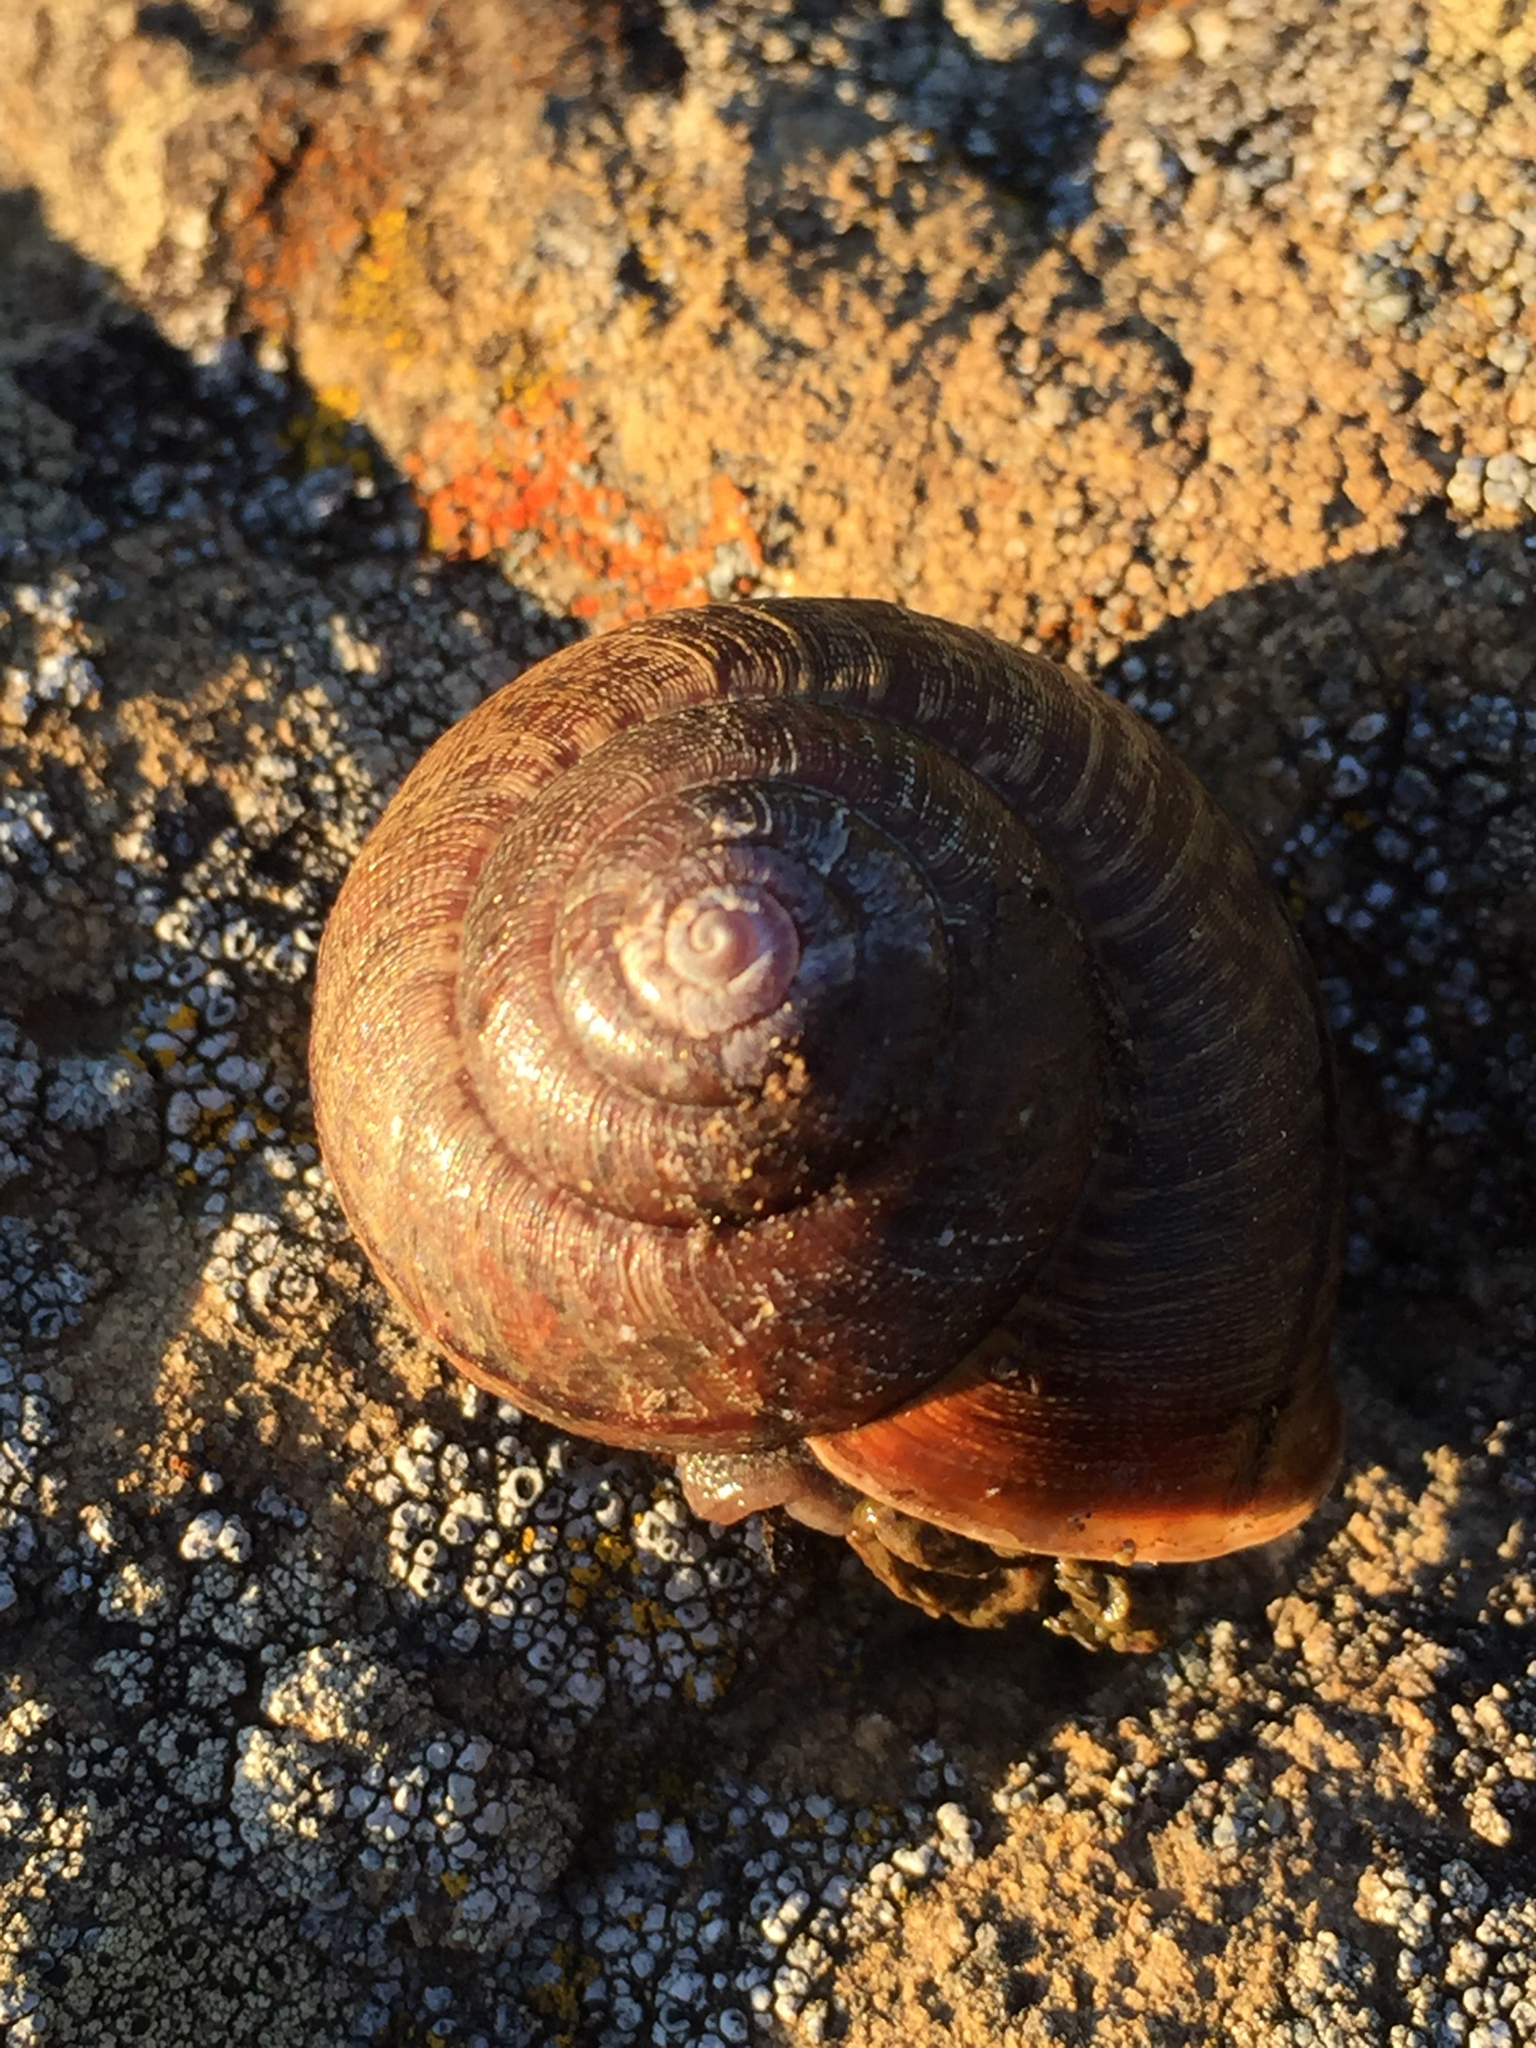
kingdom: Animalia
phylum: Mollusca
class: Gastropoda
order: Stylommatophora
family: Xanthonychidae
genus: Helminthoglypta
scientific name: Helminthoglypta nickliniana
